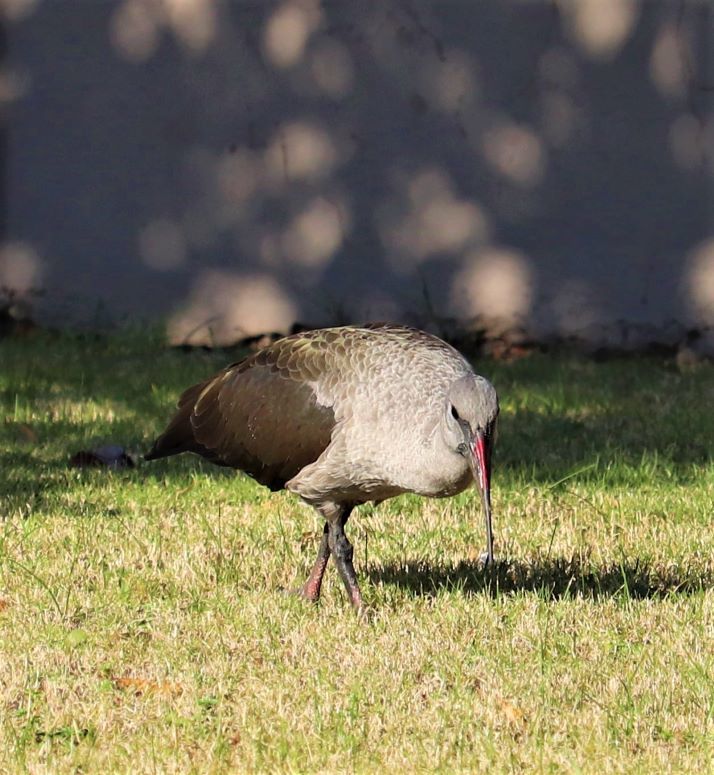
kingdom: Animalia
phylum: Chordata
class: Aves
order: Pelecaniformes
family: Threskiornithidae
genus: Bostrychia
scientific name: Bostrychia hagedash
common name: Hadada ibis
